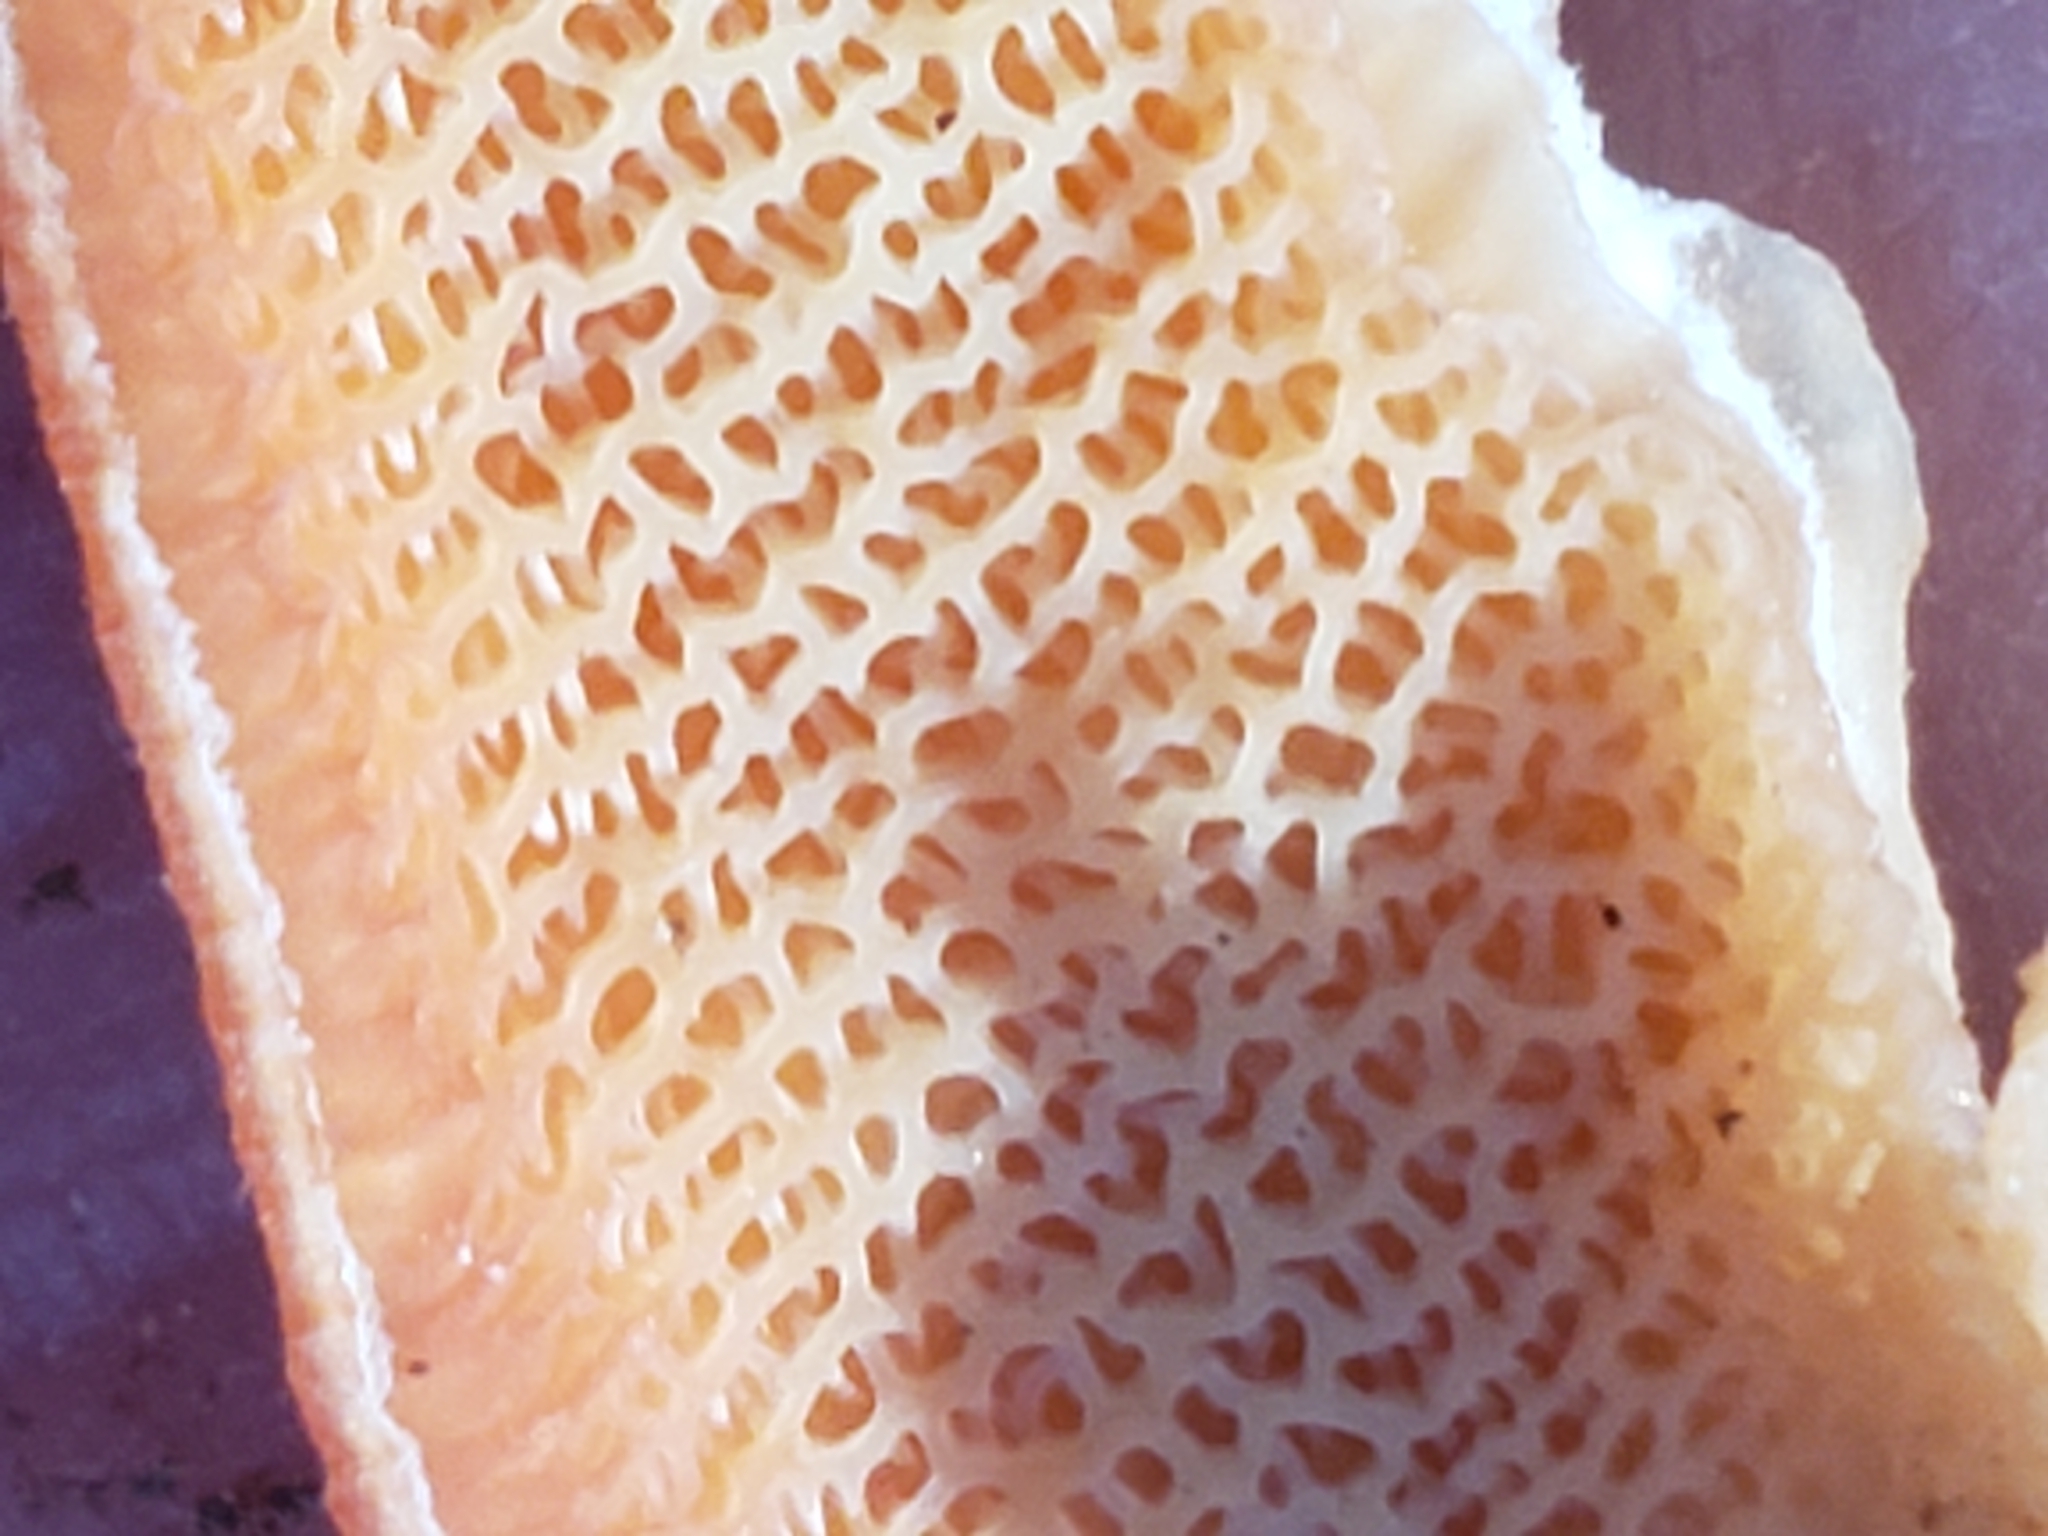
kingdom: Fungi
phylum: Basidiomycota
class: Agaricomycetes
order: Polyporales
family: Meruliaceae
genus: Phlebia
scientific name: Phlebia tremellosa
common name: Jelly rot
